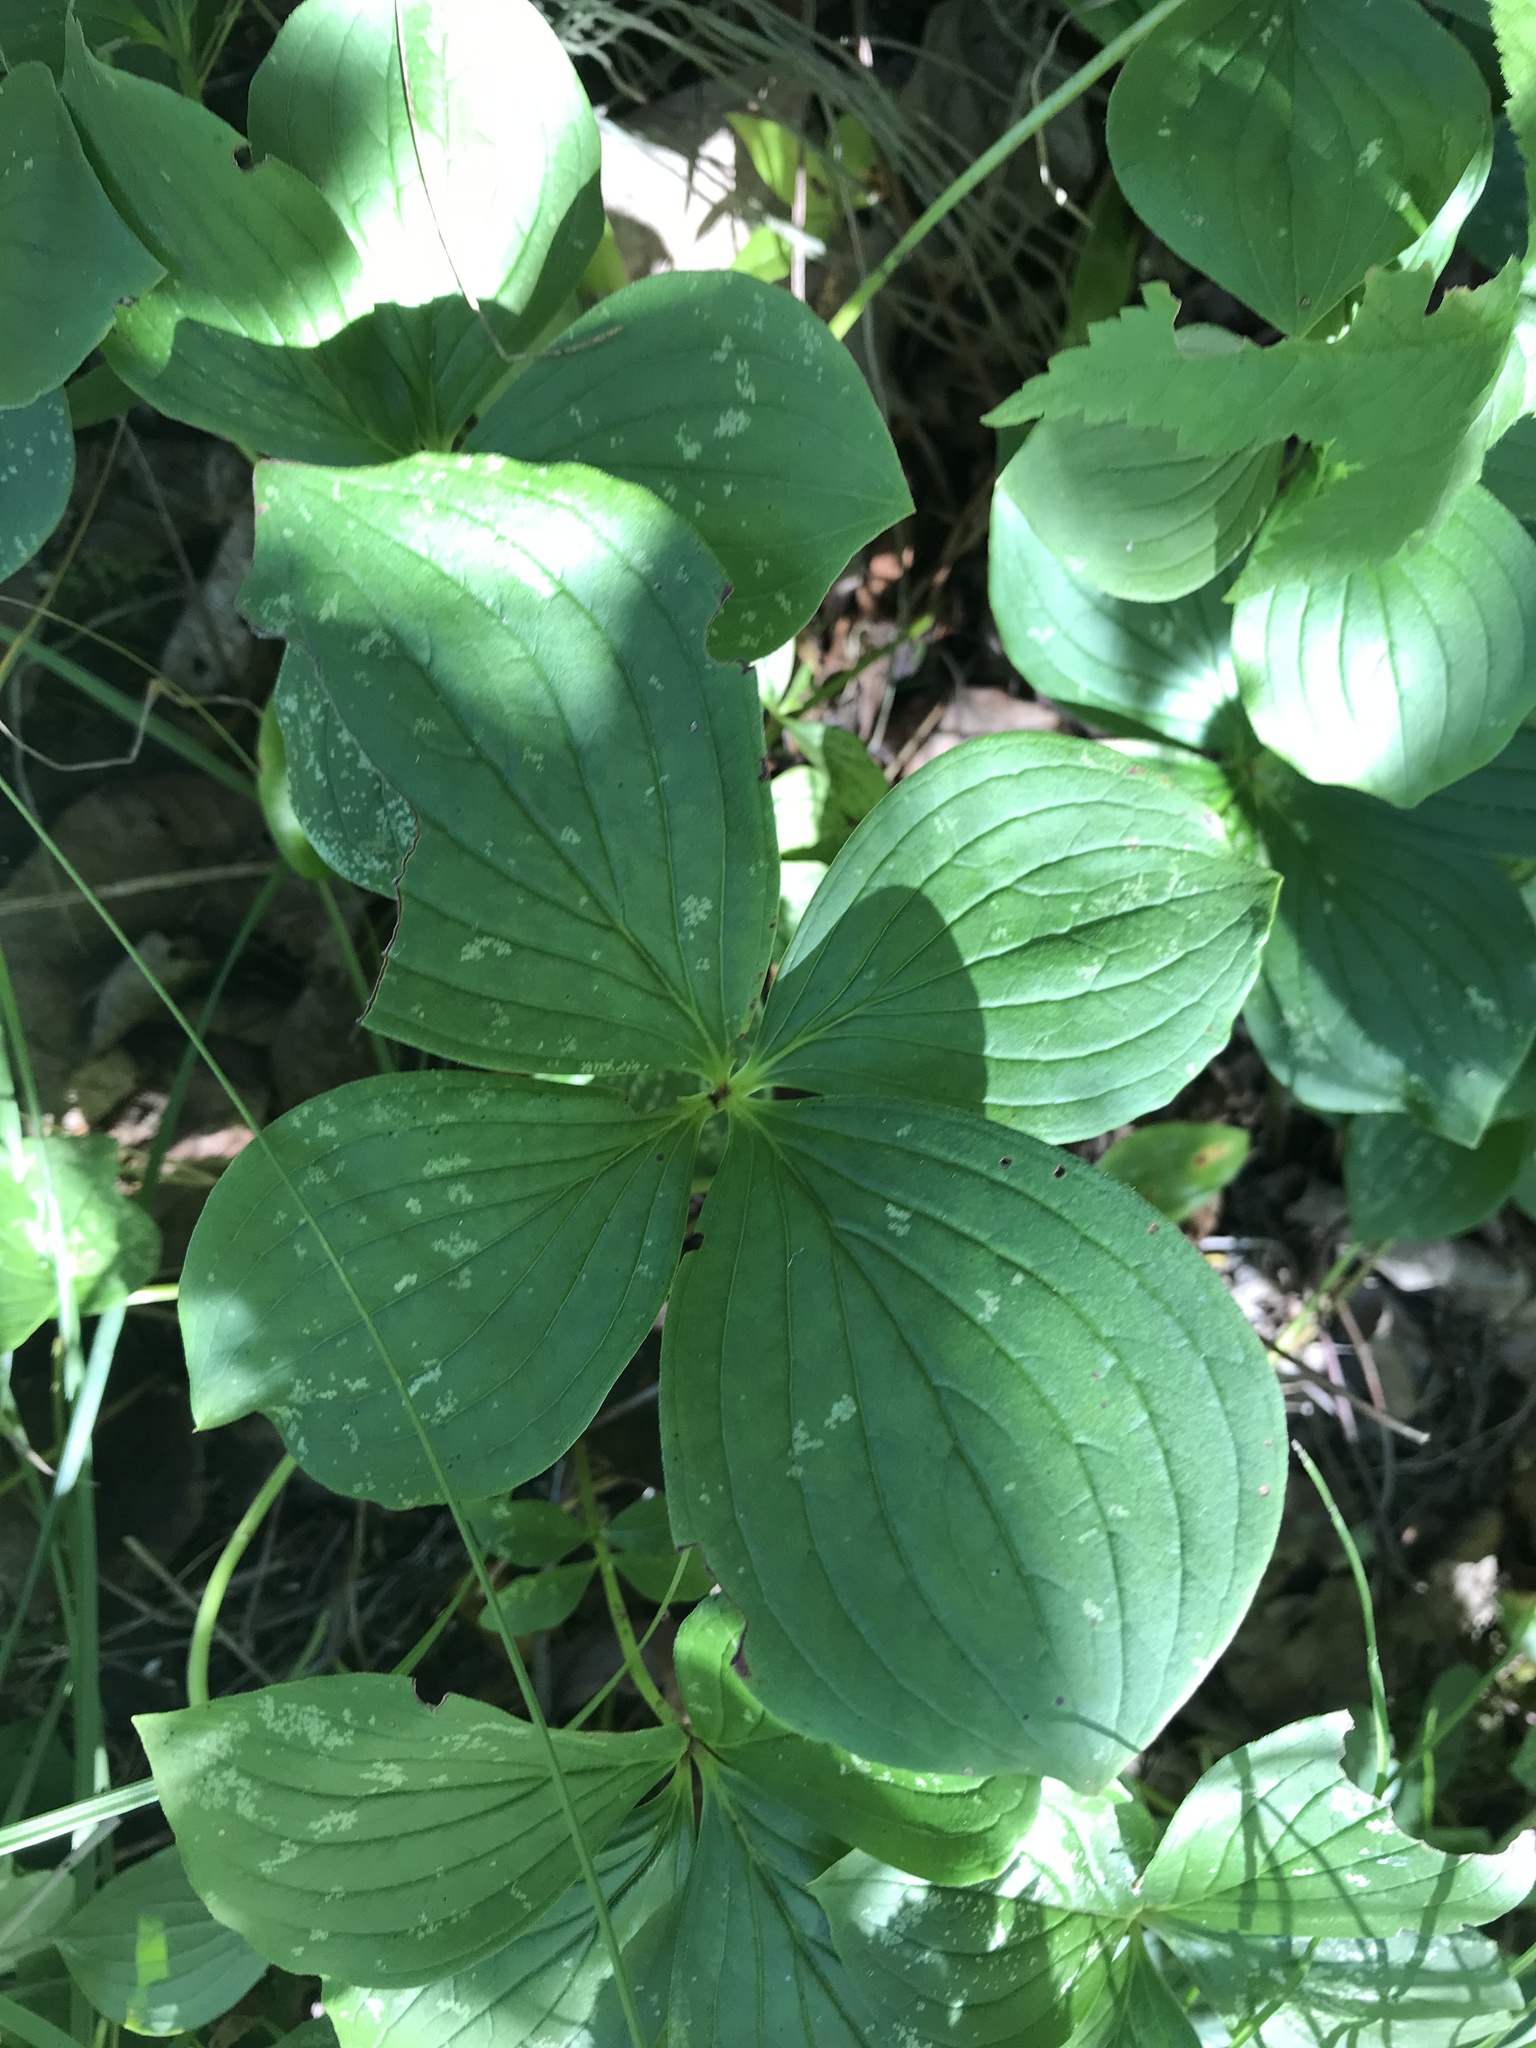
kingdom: Plantae
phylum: Tracheophyta
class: Magnoliopsida
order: Cornales
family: Cornaceae
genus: Cornus
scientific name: Cornus canadensis
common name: Creeping dogwood
